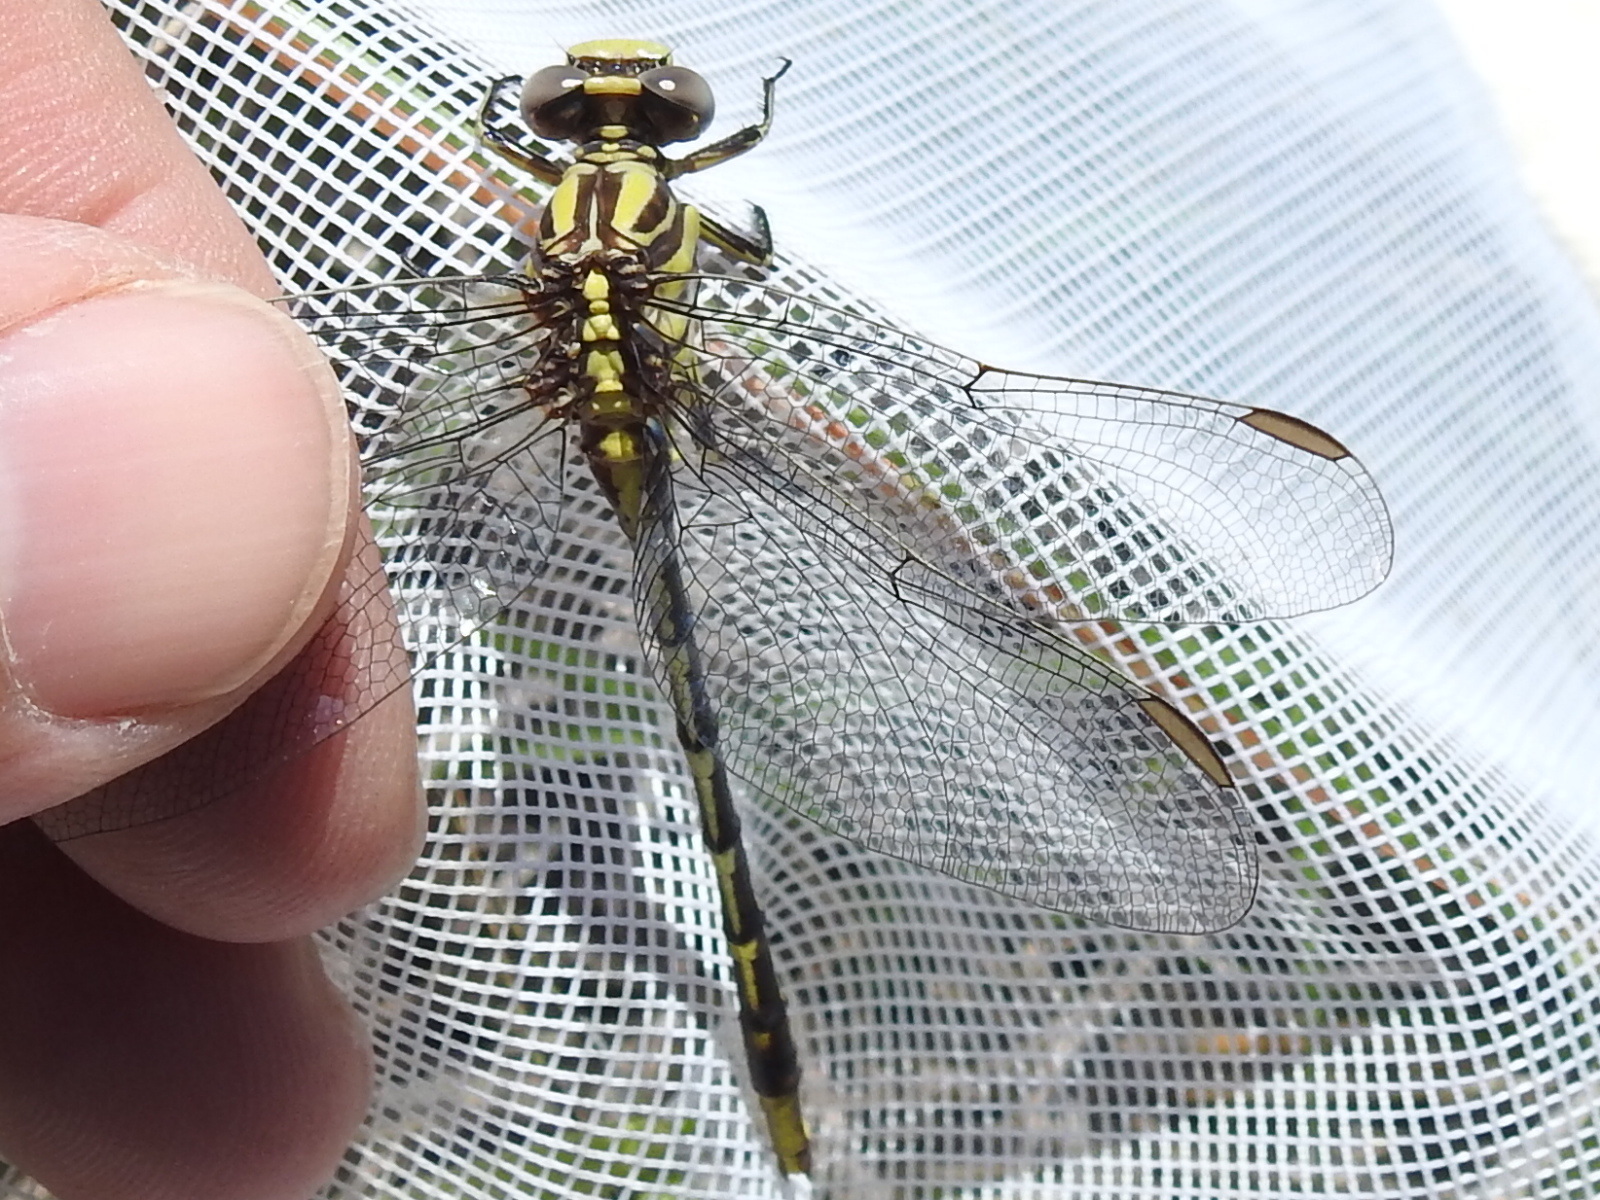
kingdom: Animalia
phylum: Arthropoda
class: Insecta
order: Odonata
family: Gomphidae
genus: Phanogomphus
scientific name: Phanogomphus militaris
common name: Sulphur-tipped clubtail
